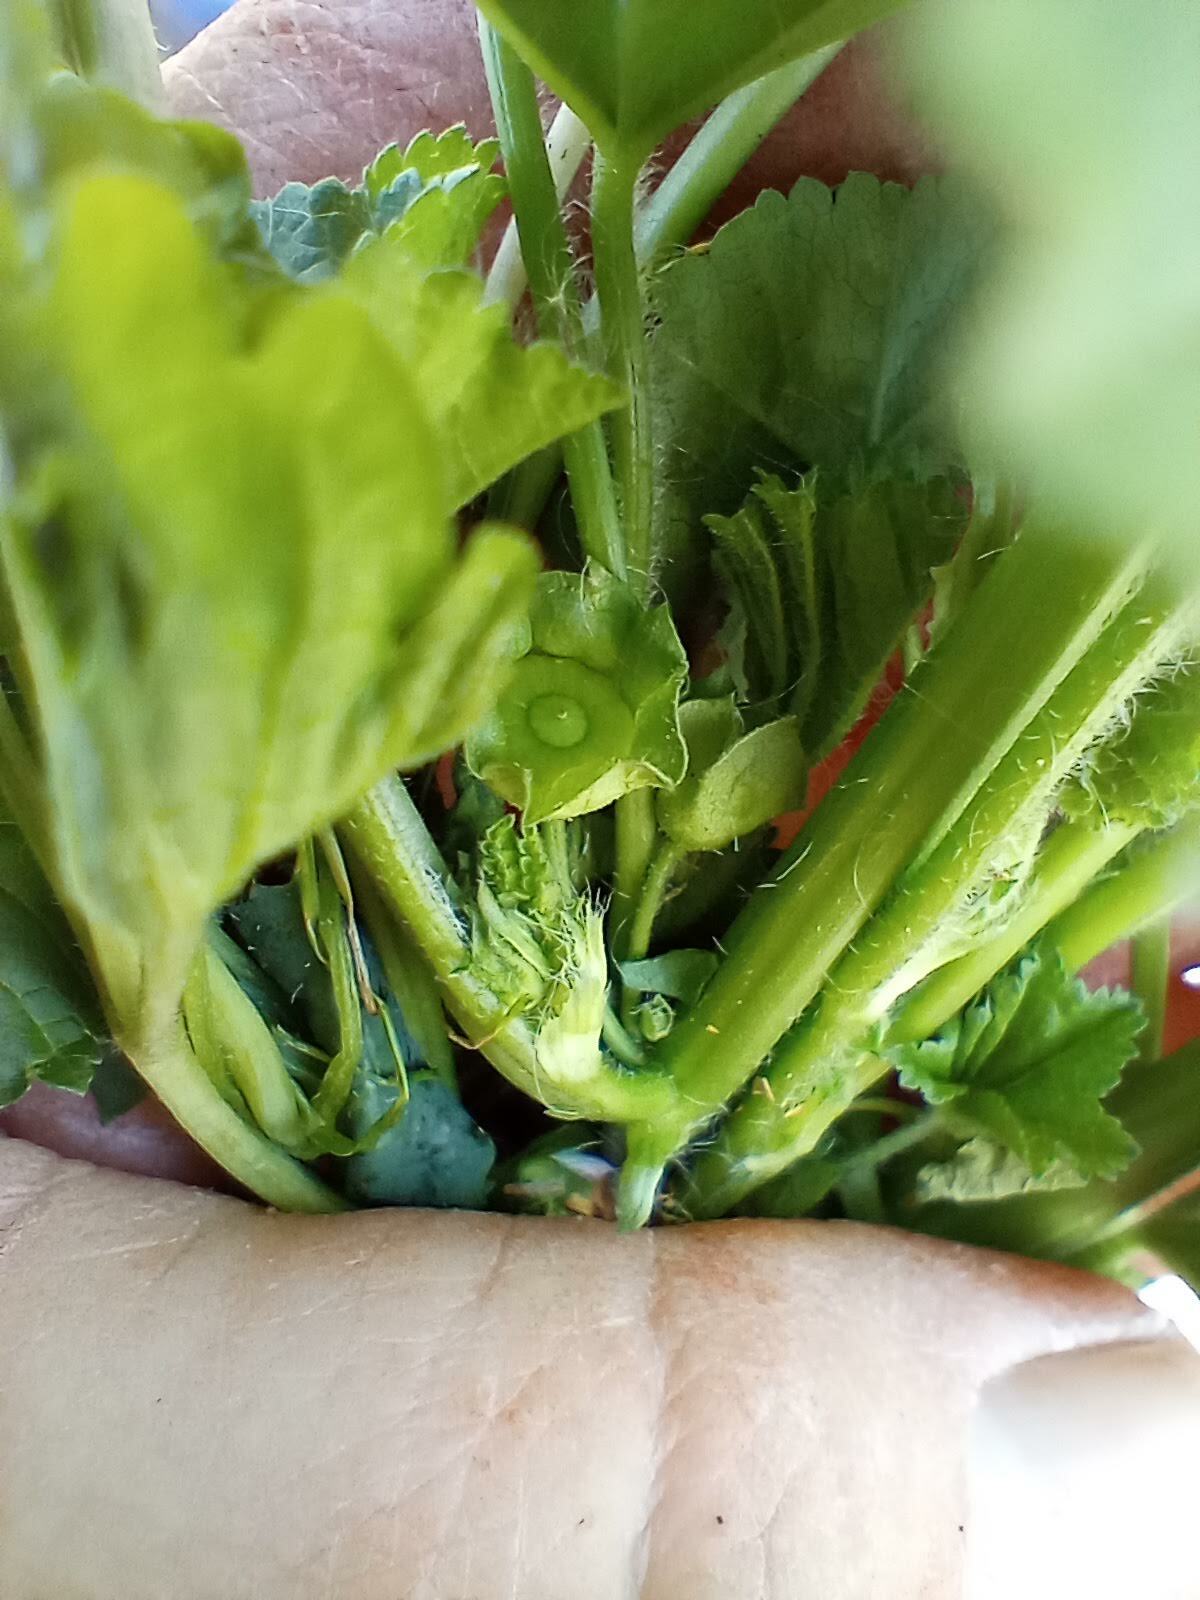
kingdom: Plantae
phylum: Tracheophyta
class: Magnoliopsida
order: Malvales
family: Malvaceae
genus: Malva
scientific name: Malva parviflora
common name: Least mallow
